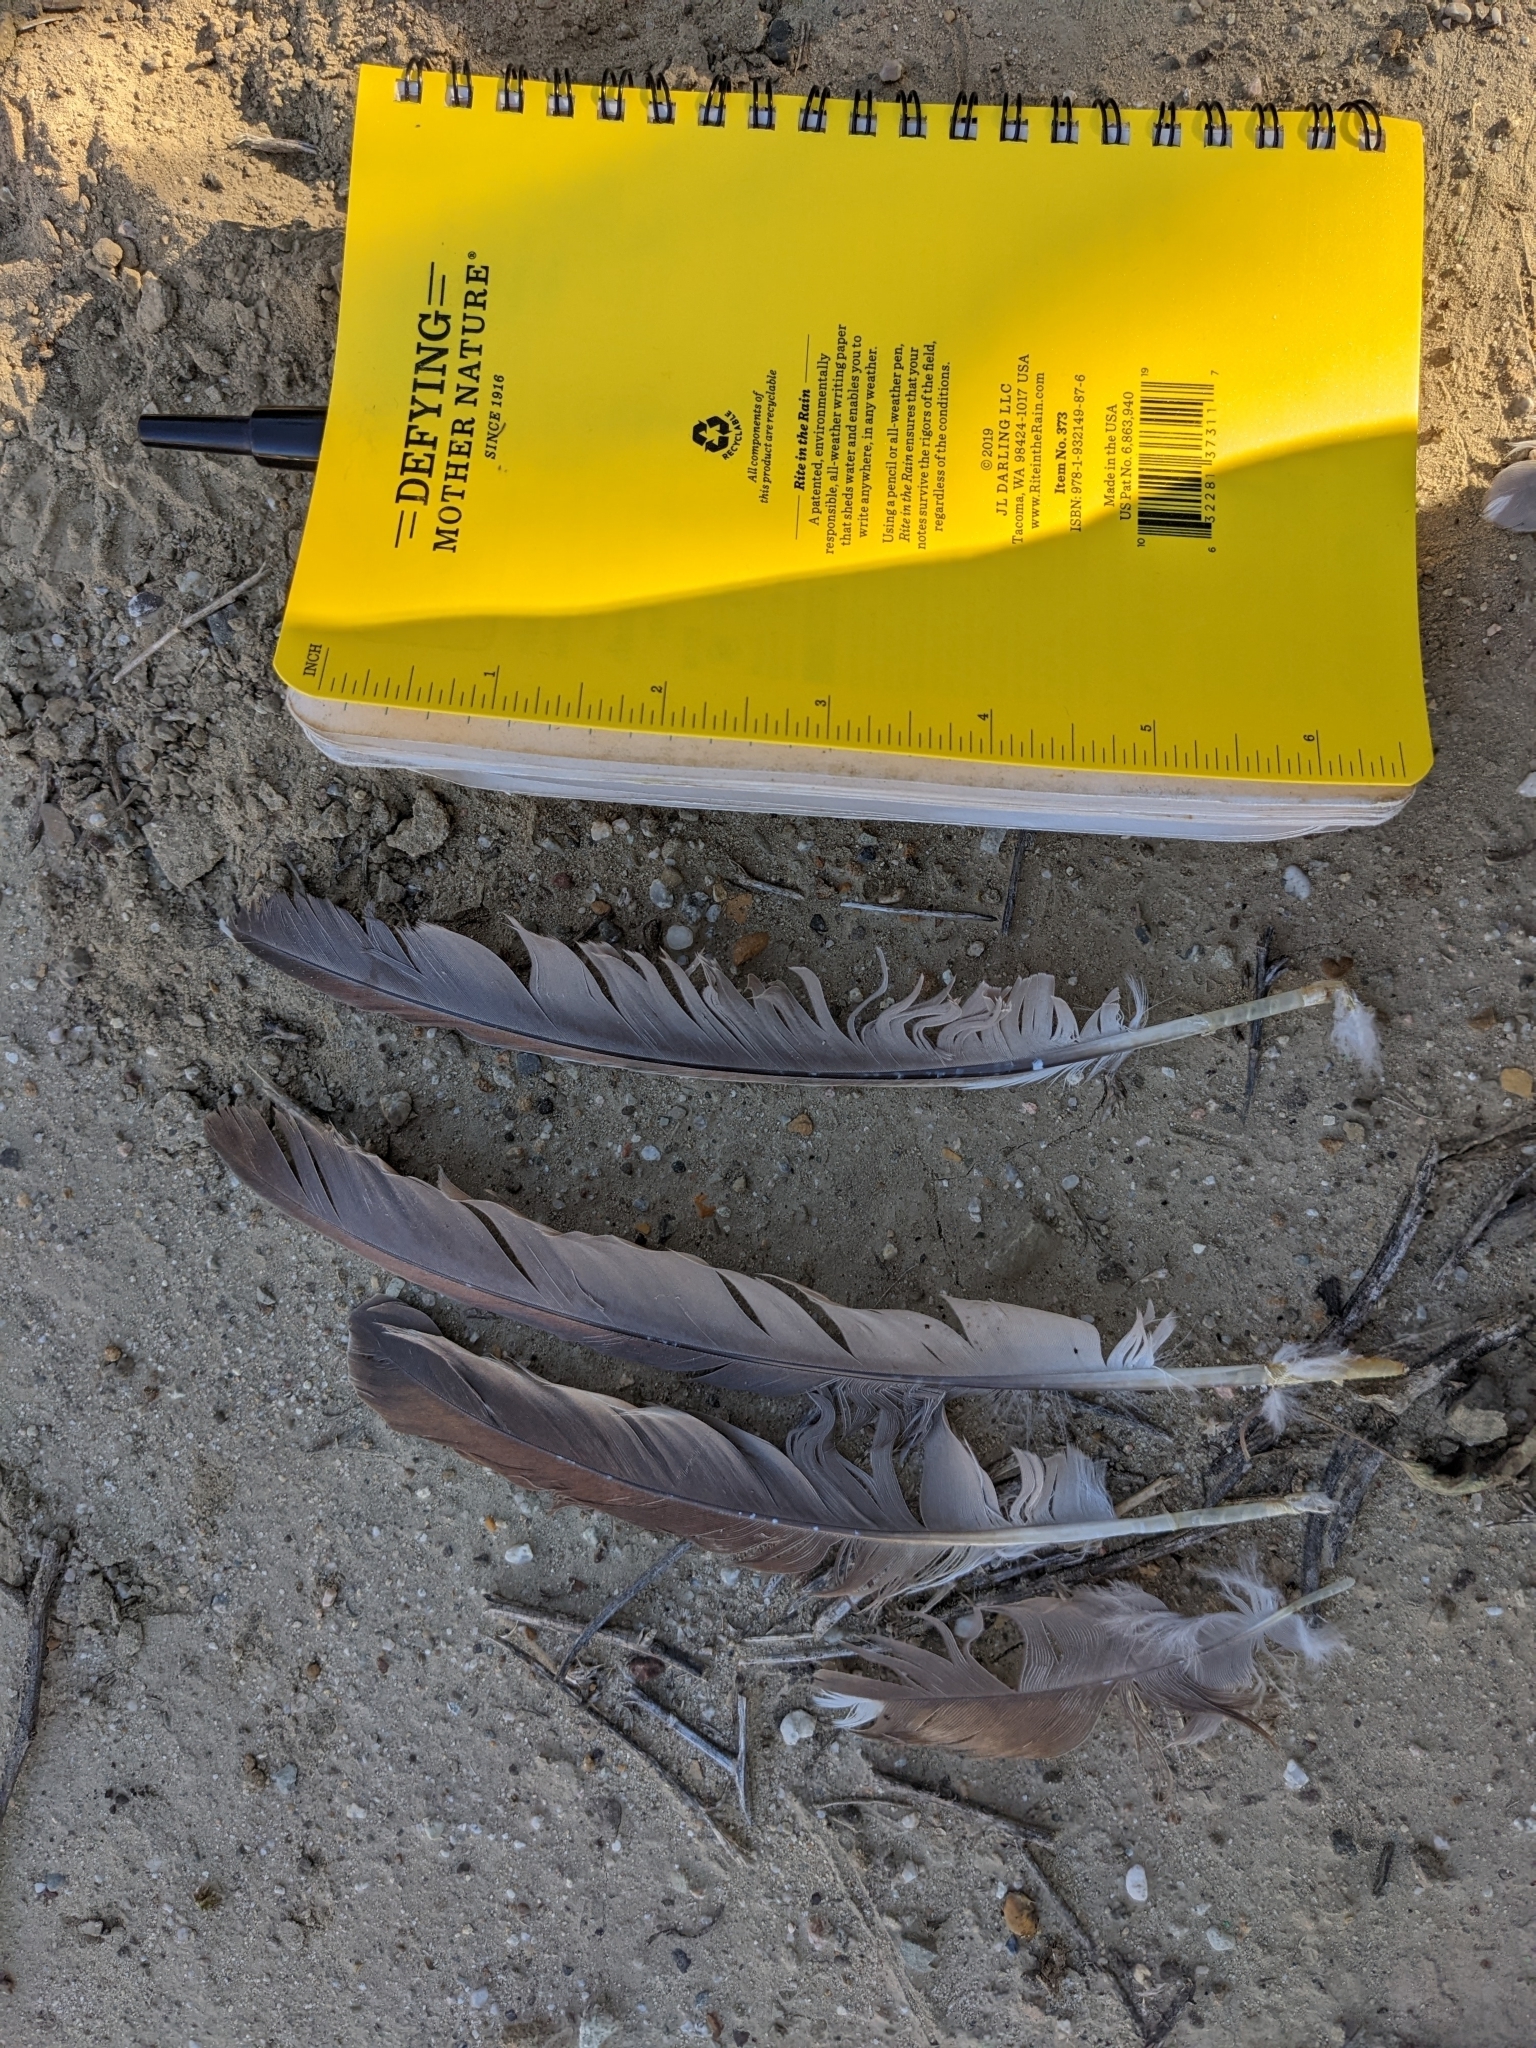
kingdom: Animalia
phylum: Chordata
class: Aves
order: Pelecaniformes
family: Ardeidae
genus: Nycticorax
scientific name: Nycticorax nycticorax
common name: Black-crowned night heron
